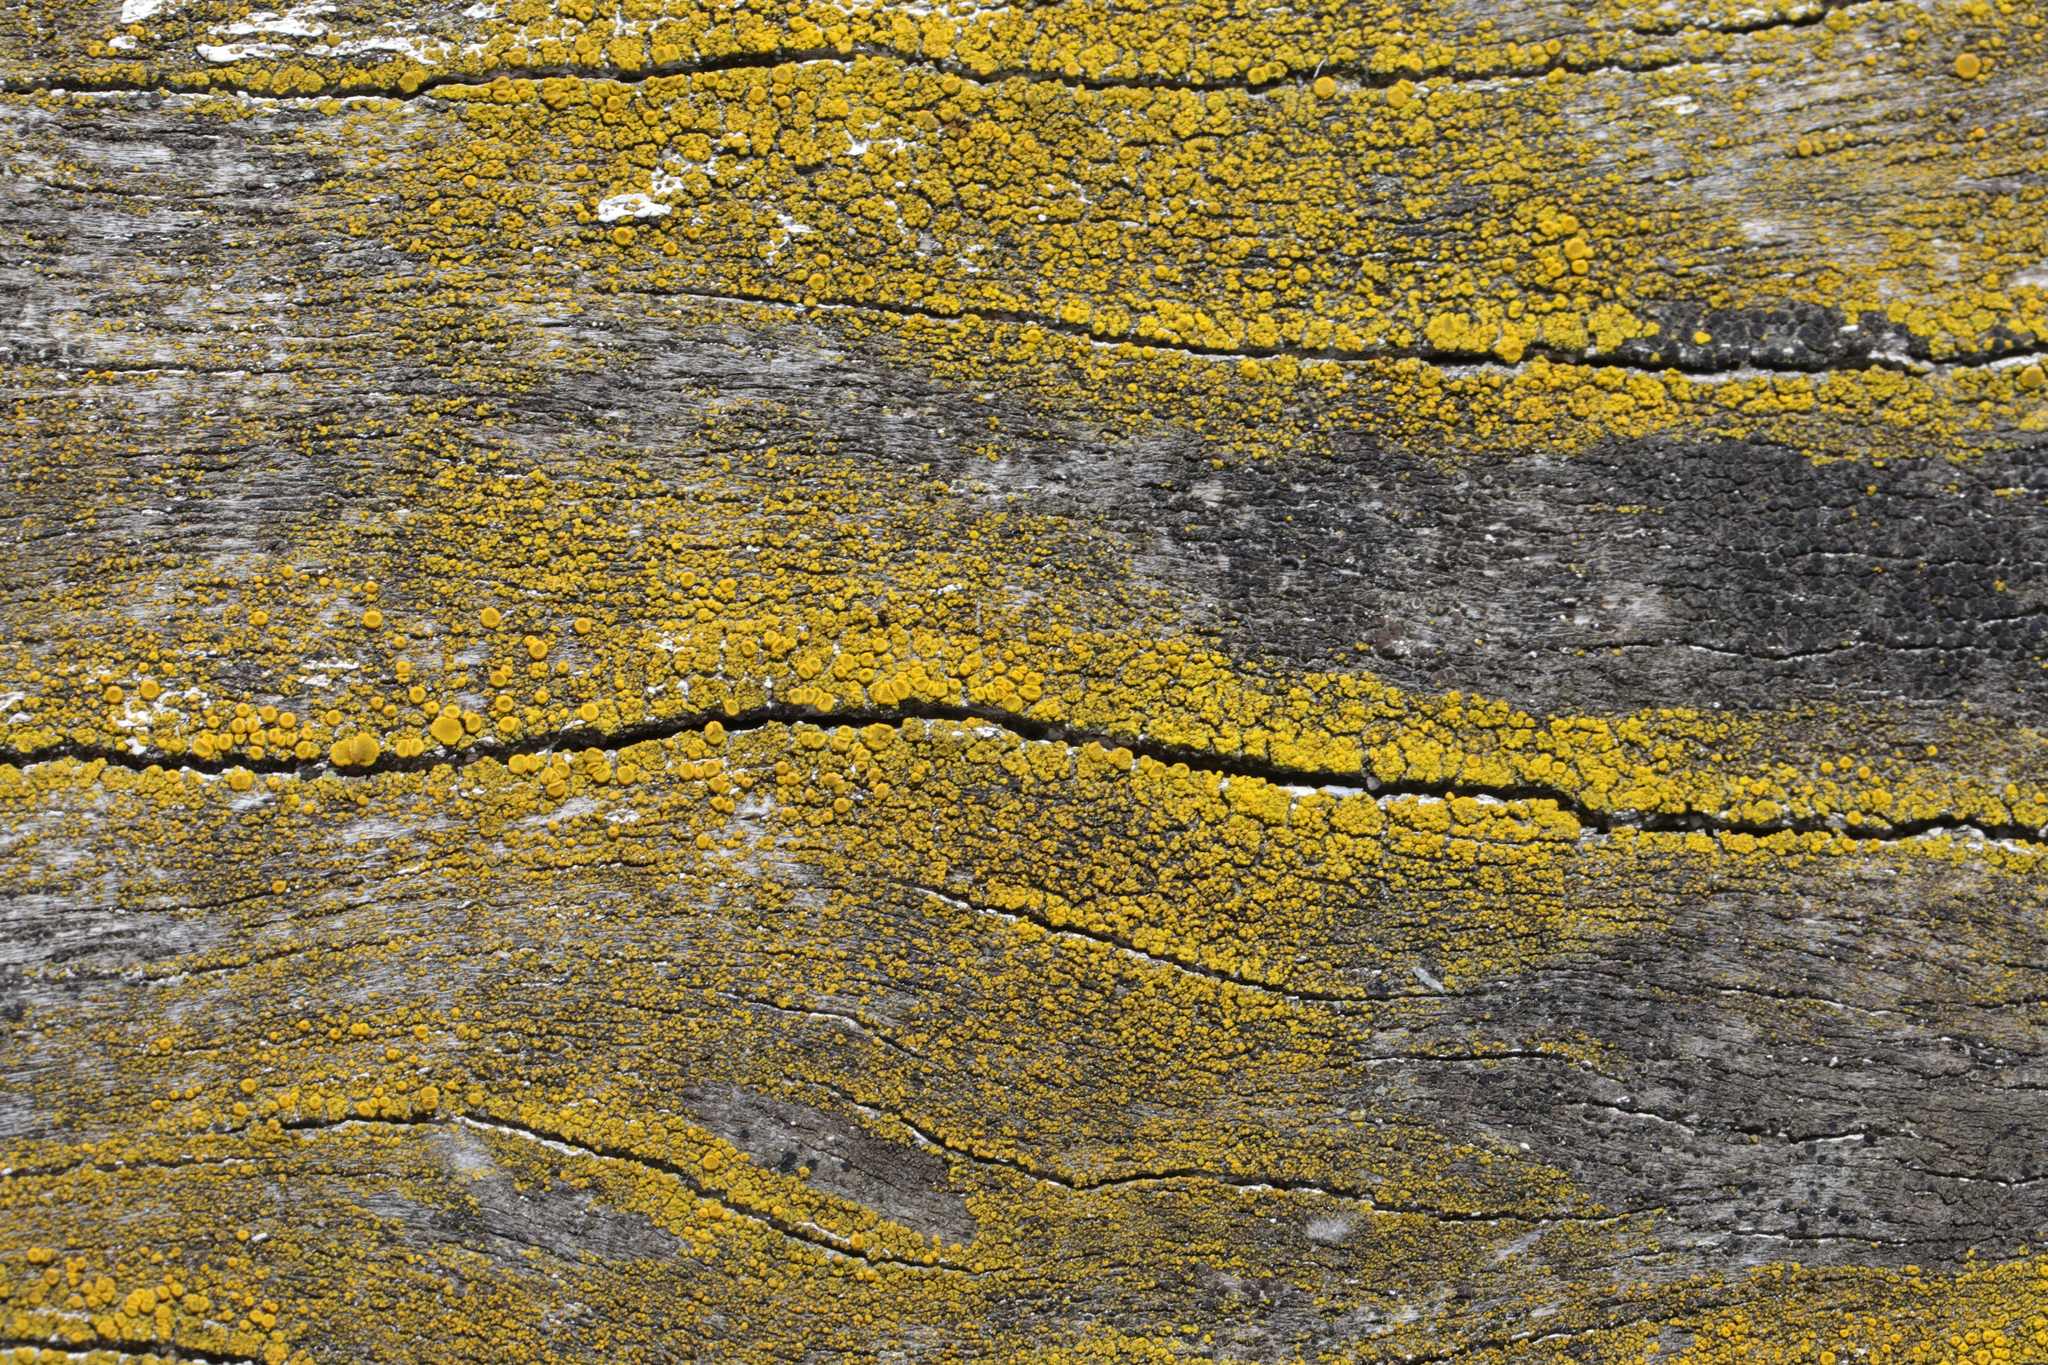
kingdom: Fungi
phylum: Ascomycota
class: Candelariomycetes
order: Candelariales
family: Candelariaceae
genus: Candelariella
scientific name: Candelariella vitellina
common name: Common goldspeck
